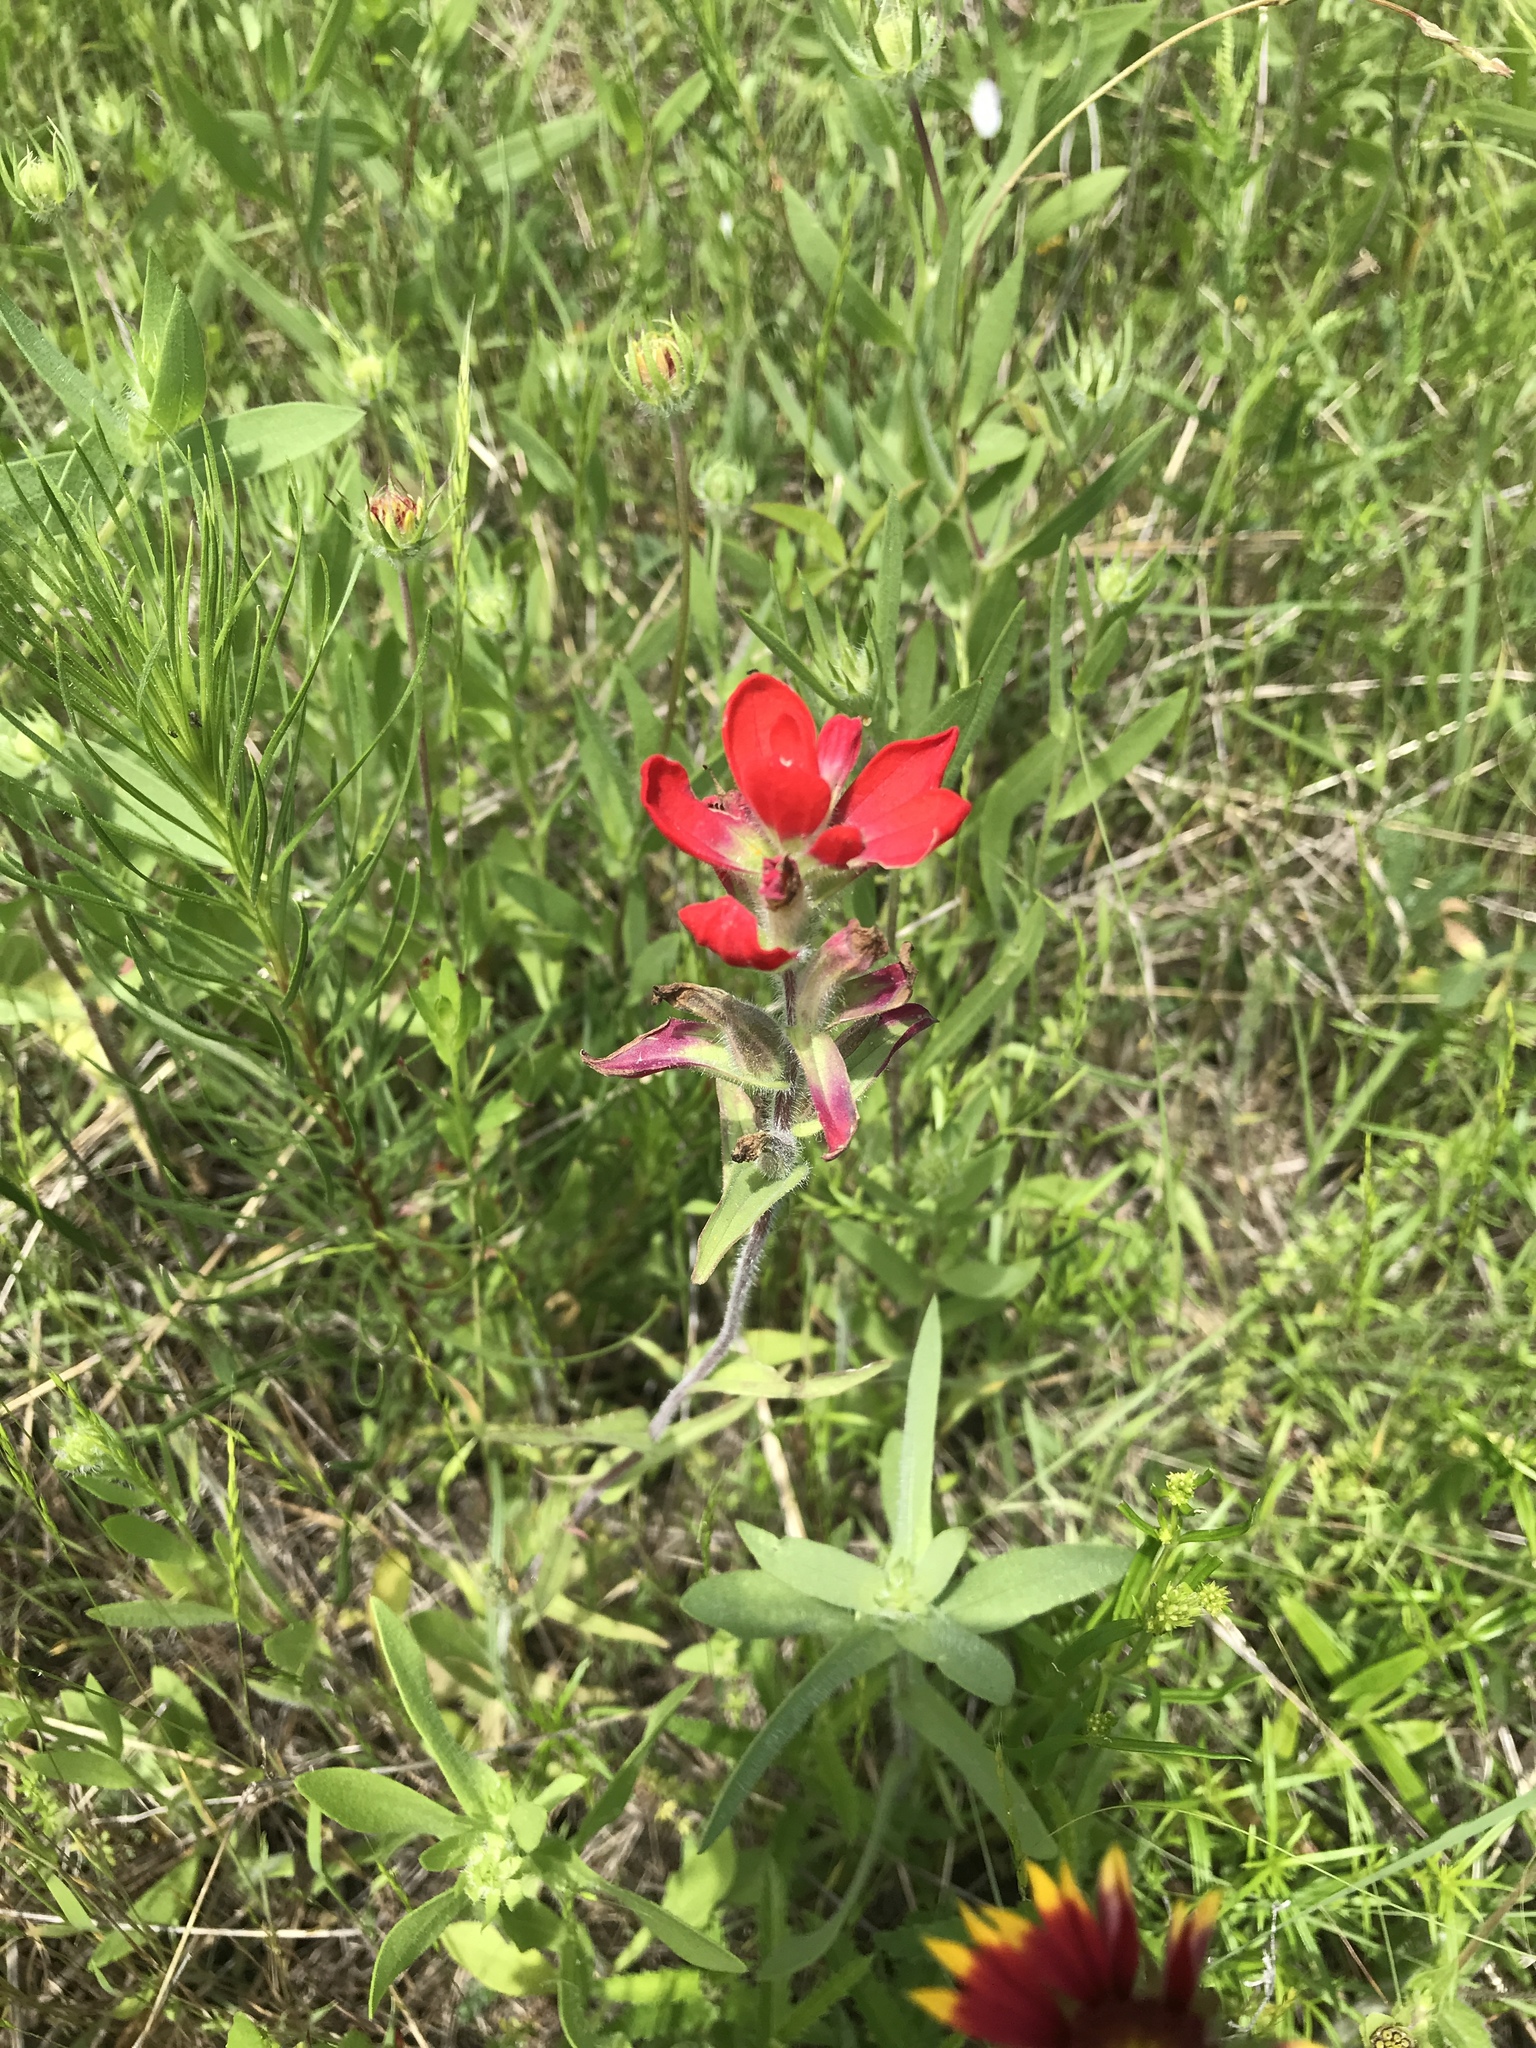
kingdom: Plantae
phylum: Tracheophyta
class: Magnoliopsida
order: Lamiales
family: Orobanchaceae
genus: Castilleja
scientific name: Castilleja indivisa
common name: Texas paintbrush
